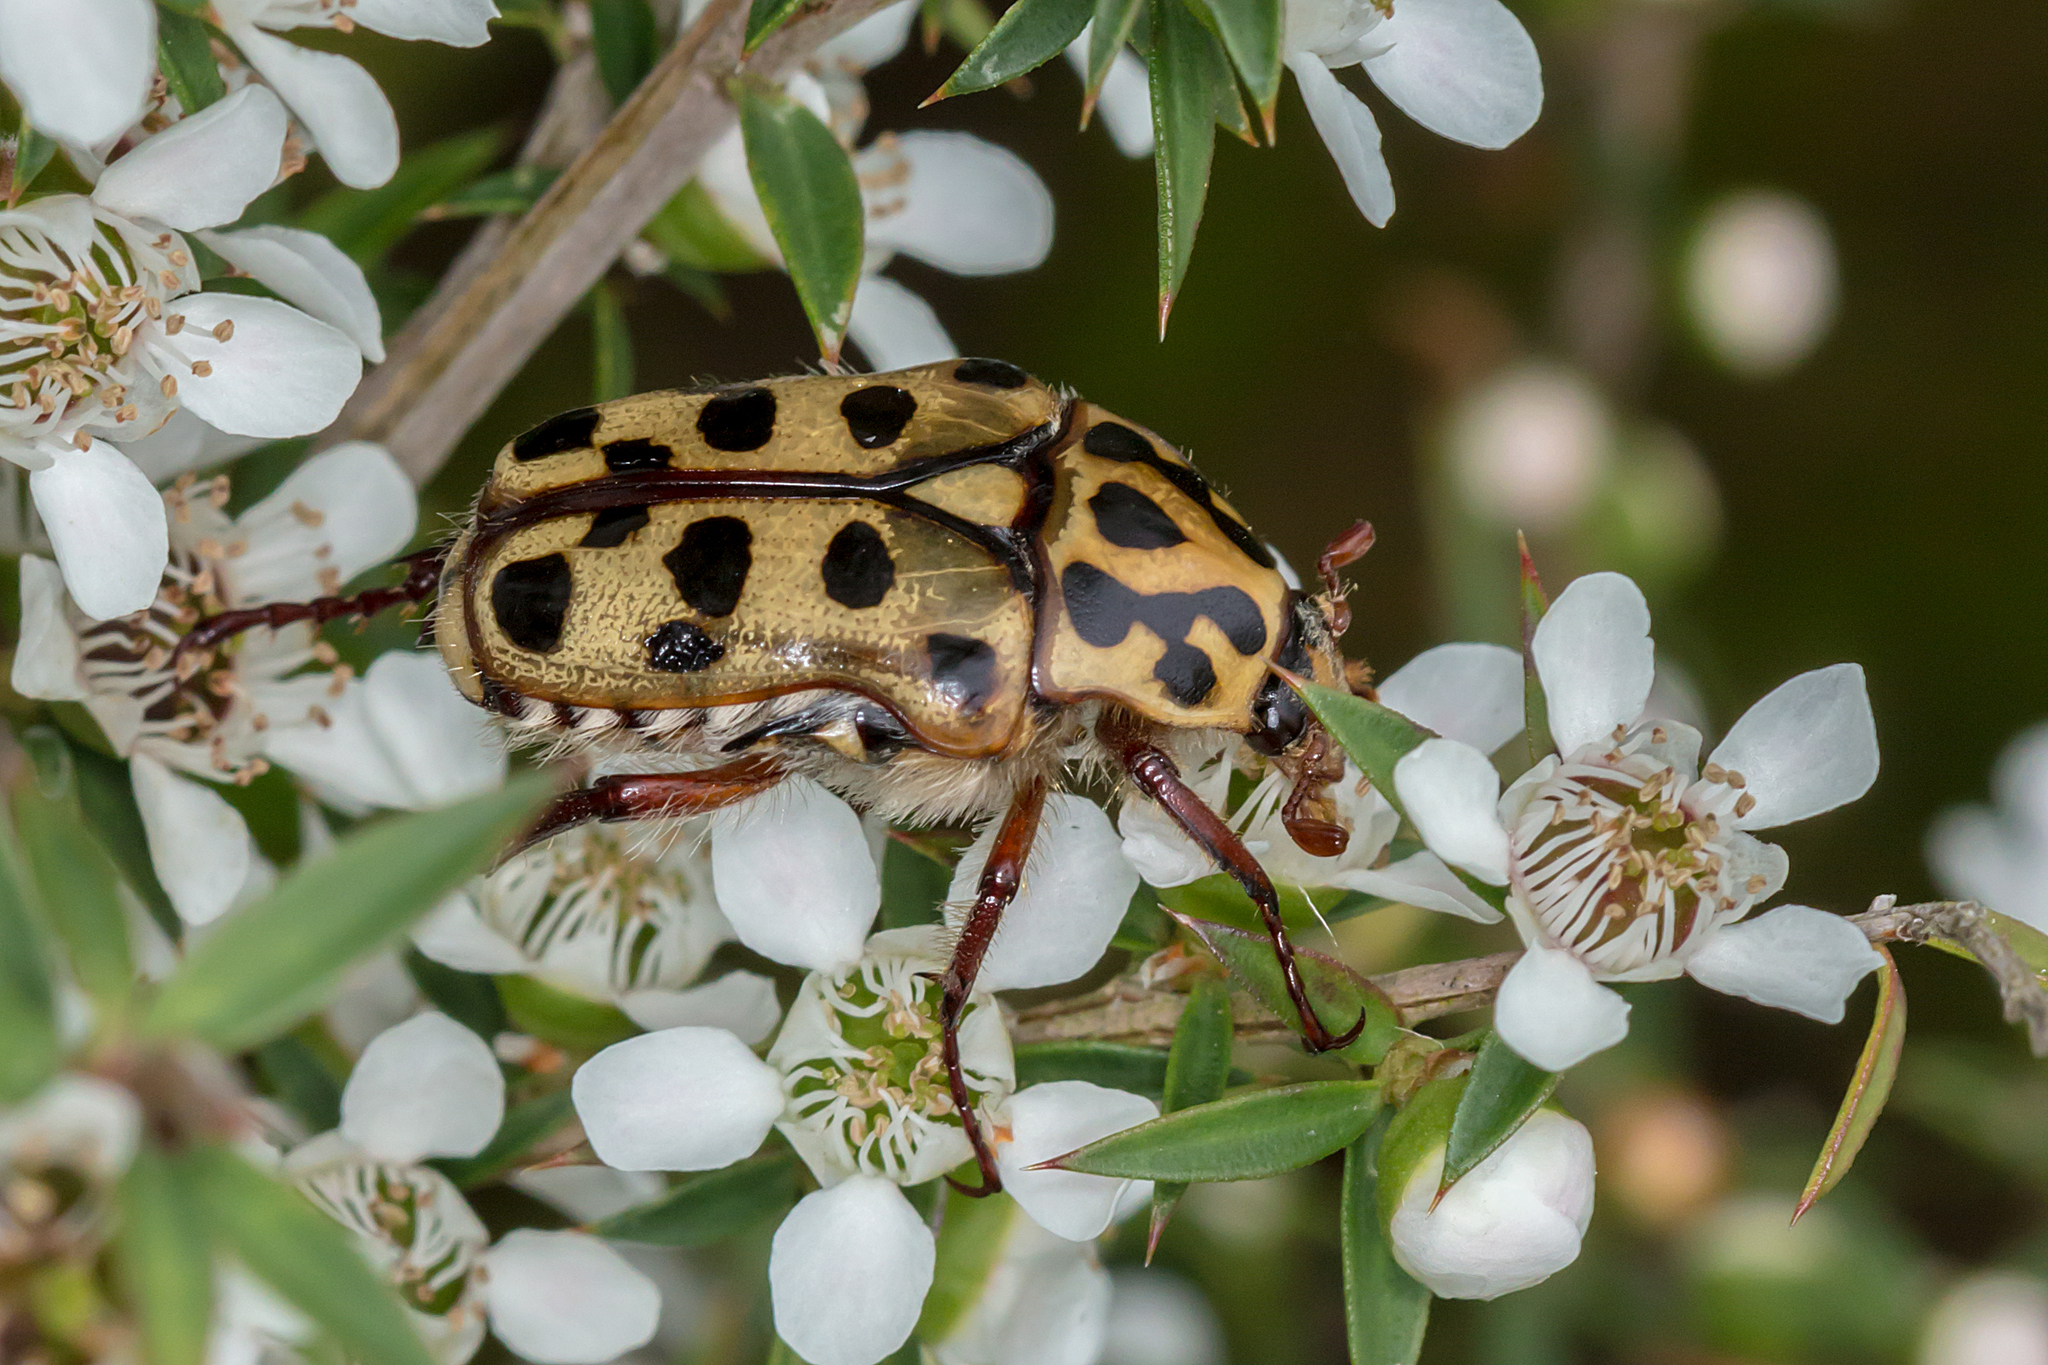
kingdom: Animalia
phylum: Arthropoda
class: Insecta
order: Coleoptera
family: Scarabaeidae
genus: Neorrhina
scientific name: Neorrhina punctatum
